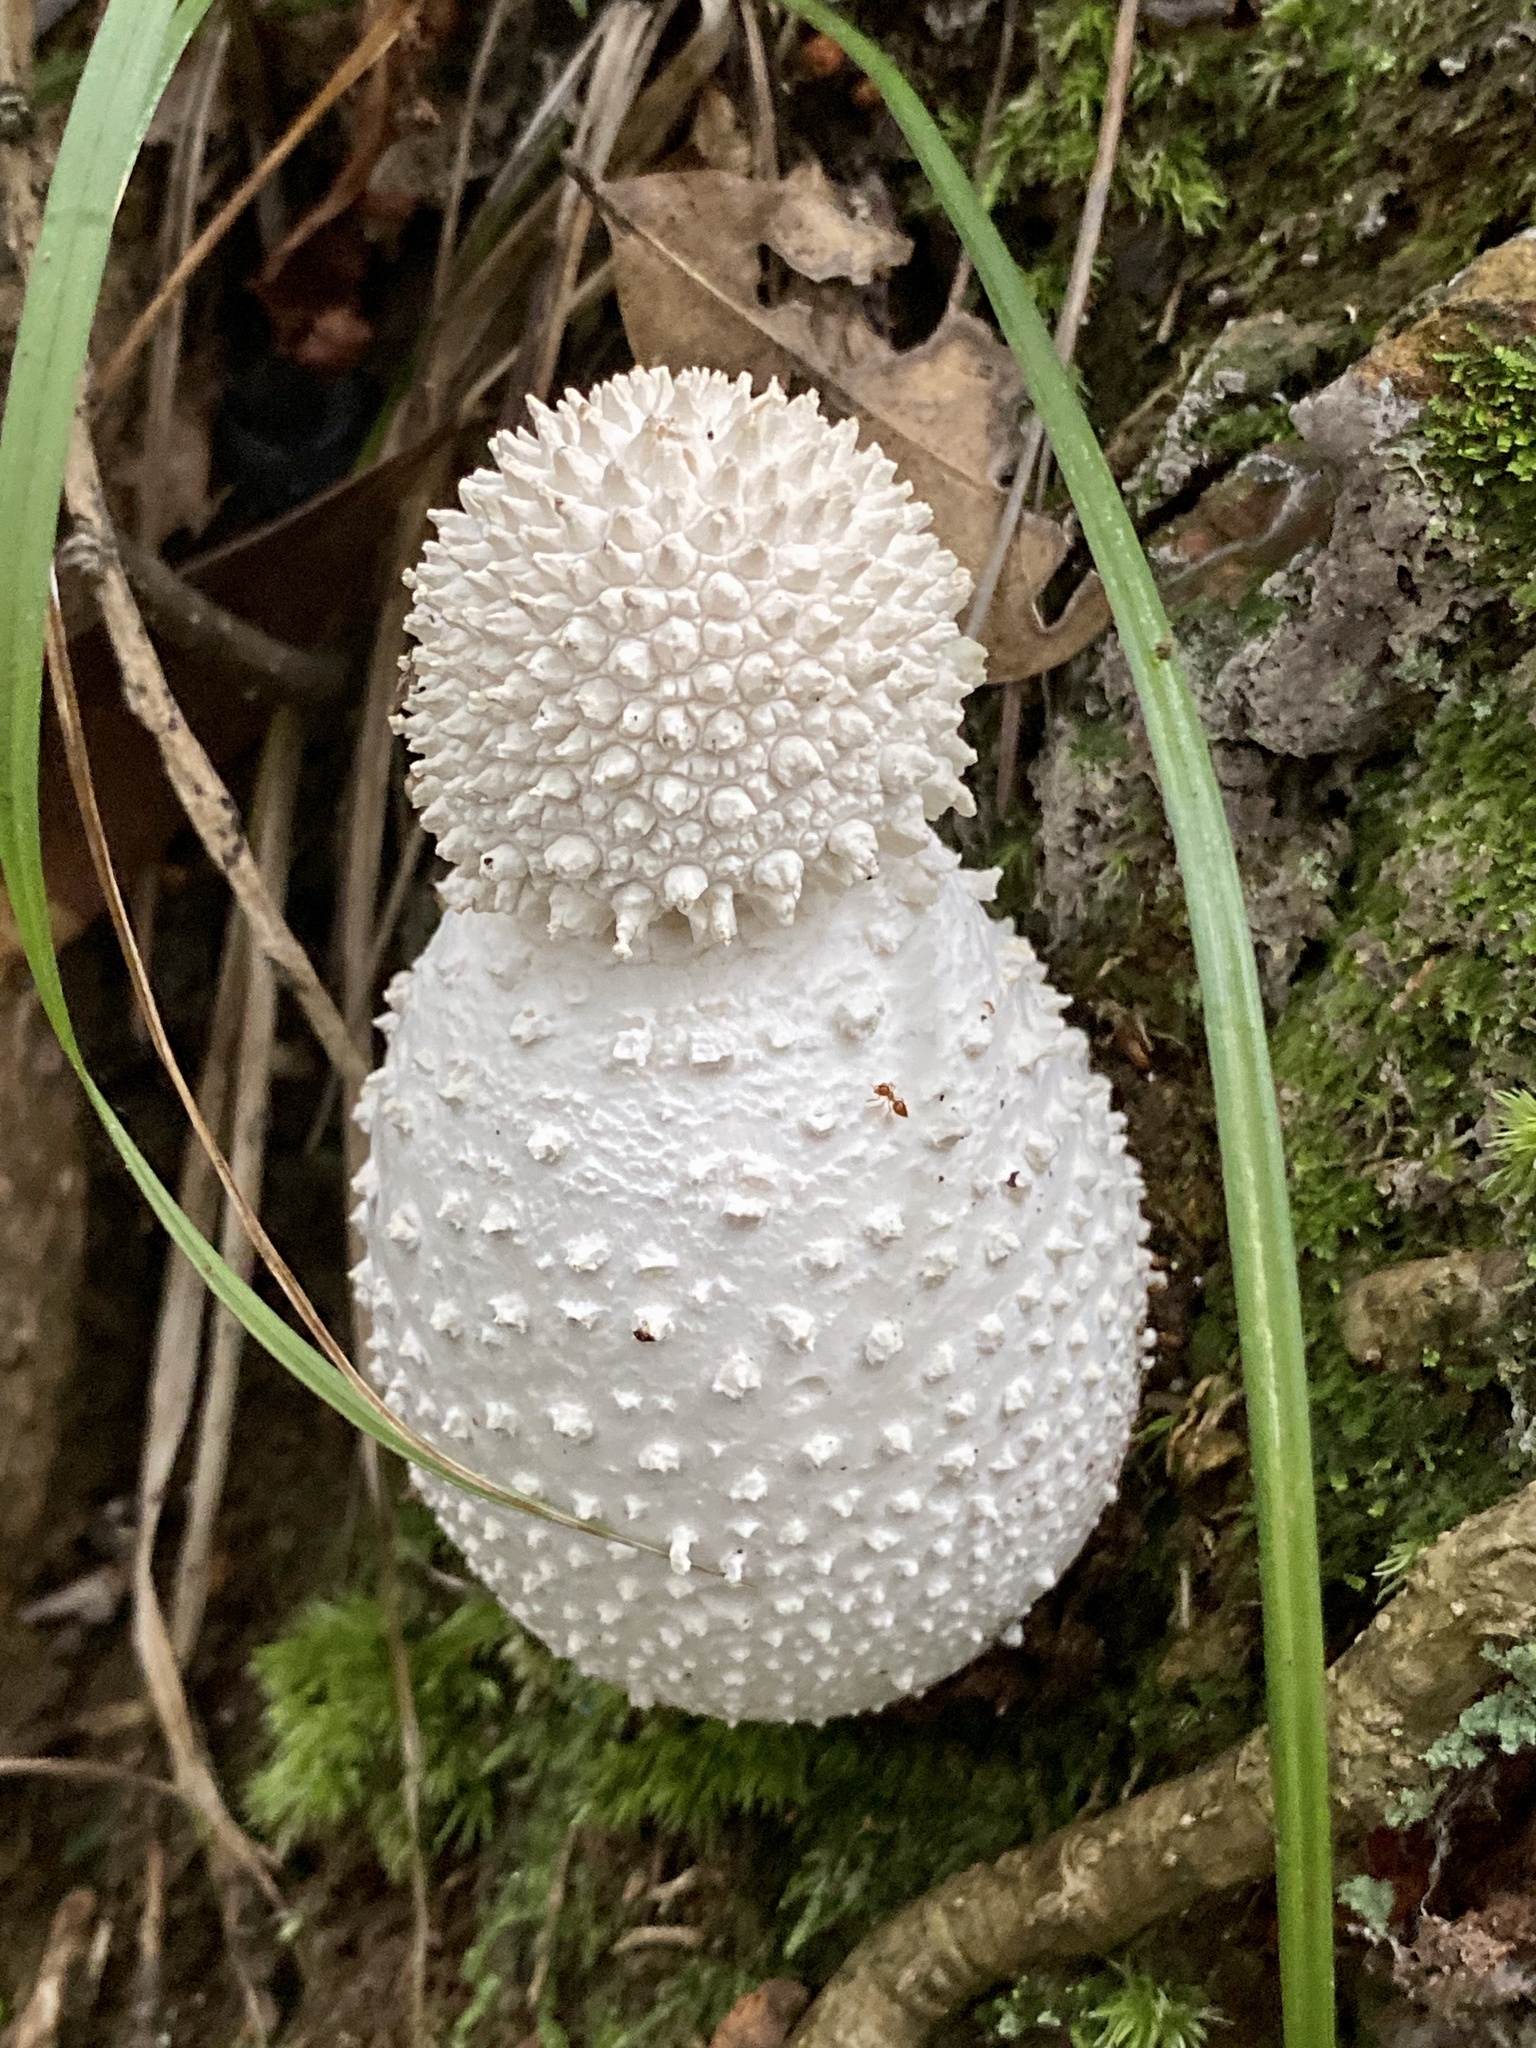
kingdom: Fungi
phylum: Basidiomycota
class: Agaricomycetes
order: Agaricales
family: Amanitaceae
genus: Amanita
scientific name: Amanita virgineoides
